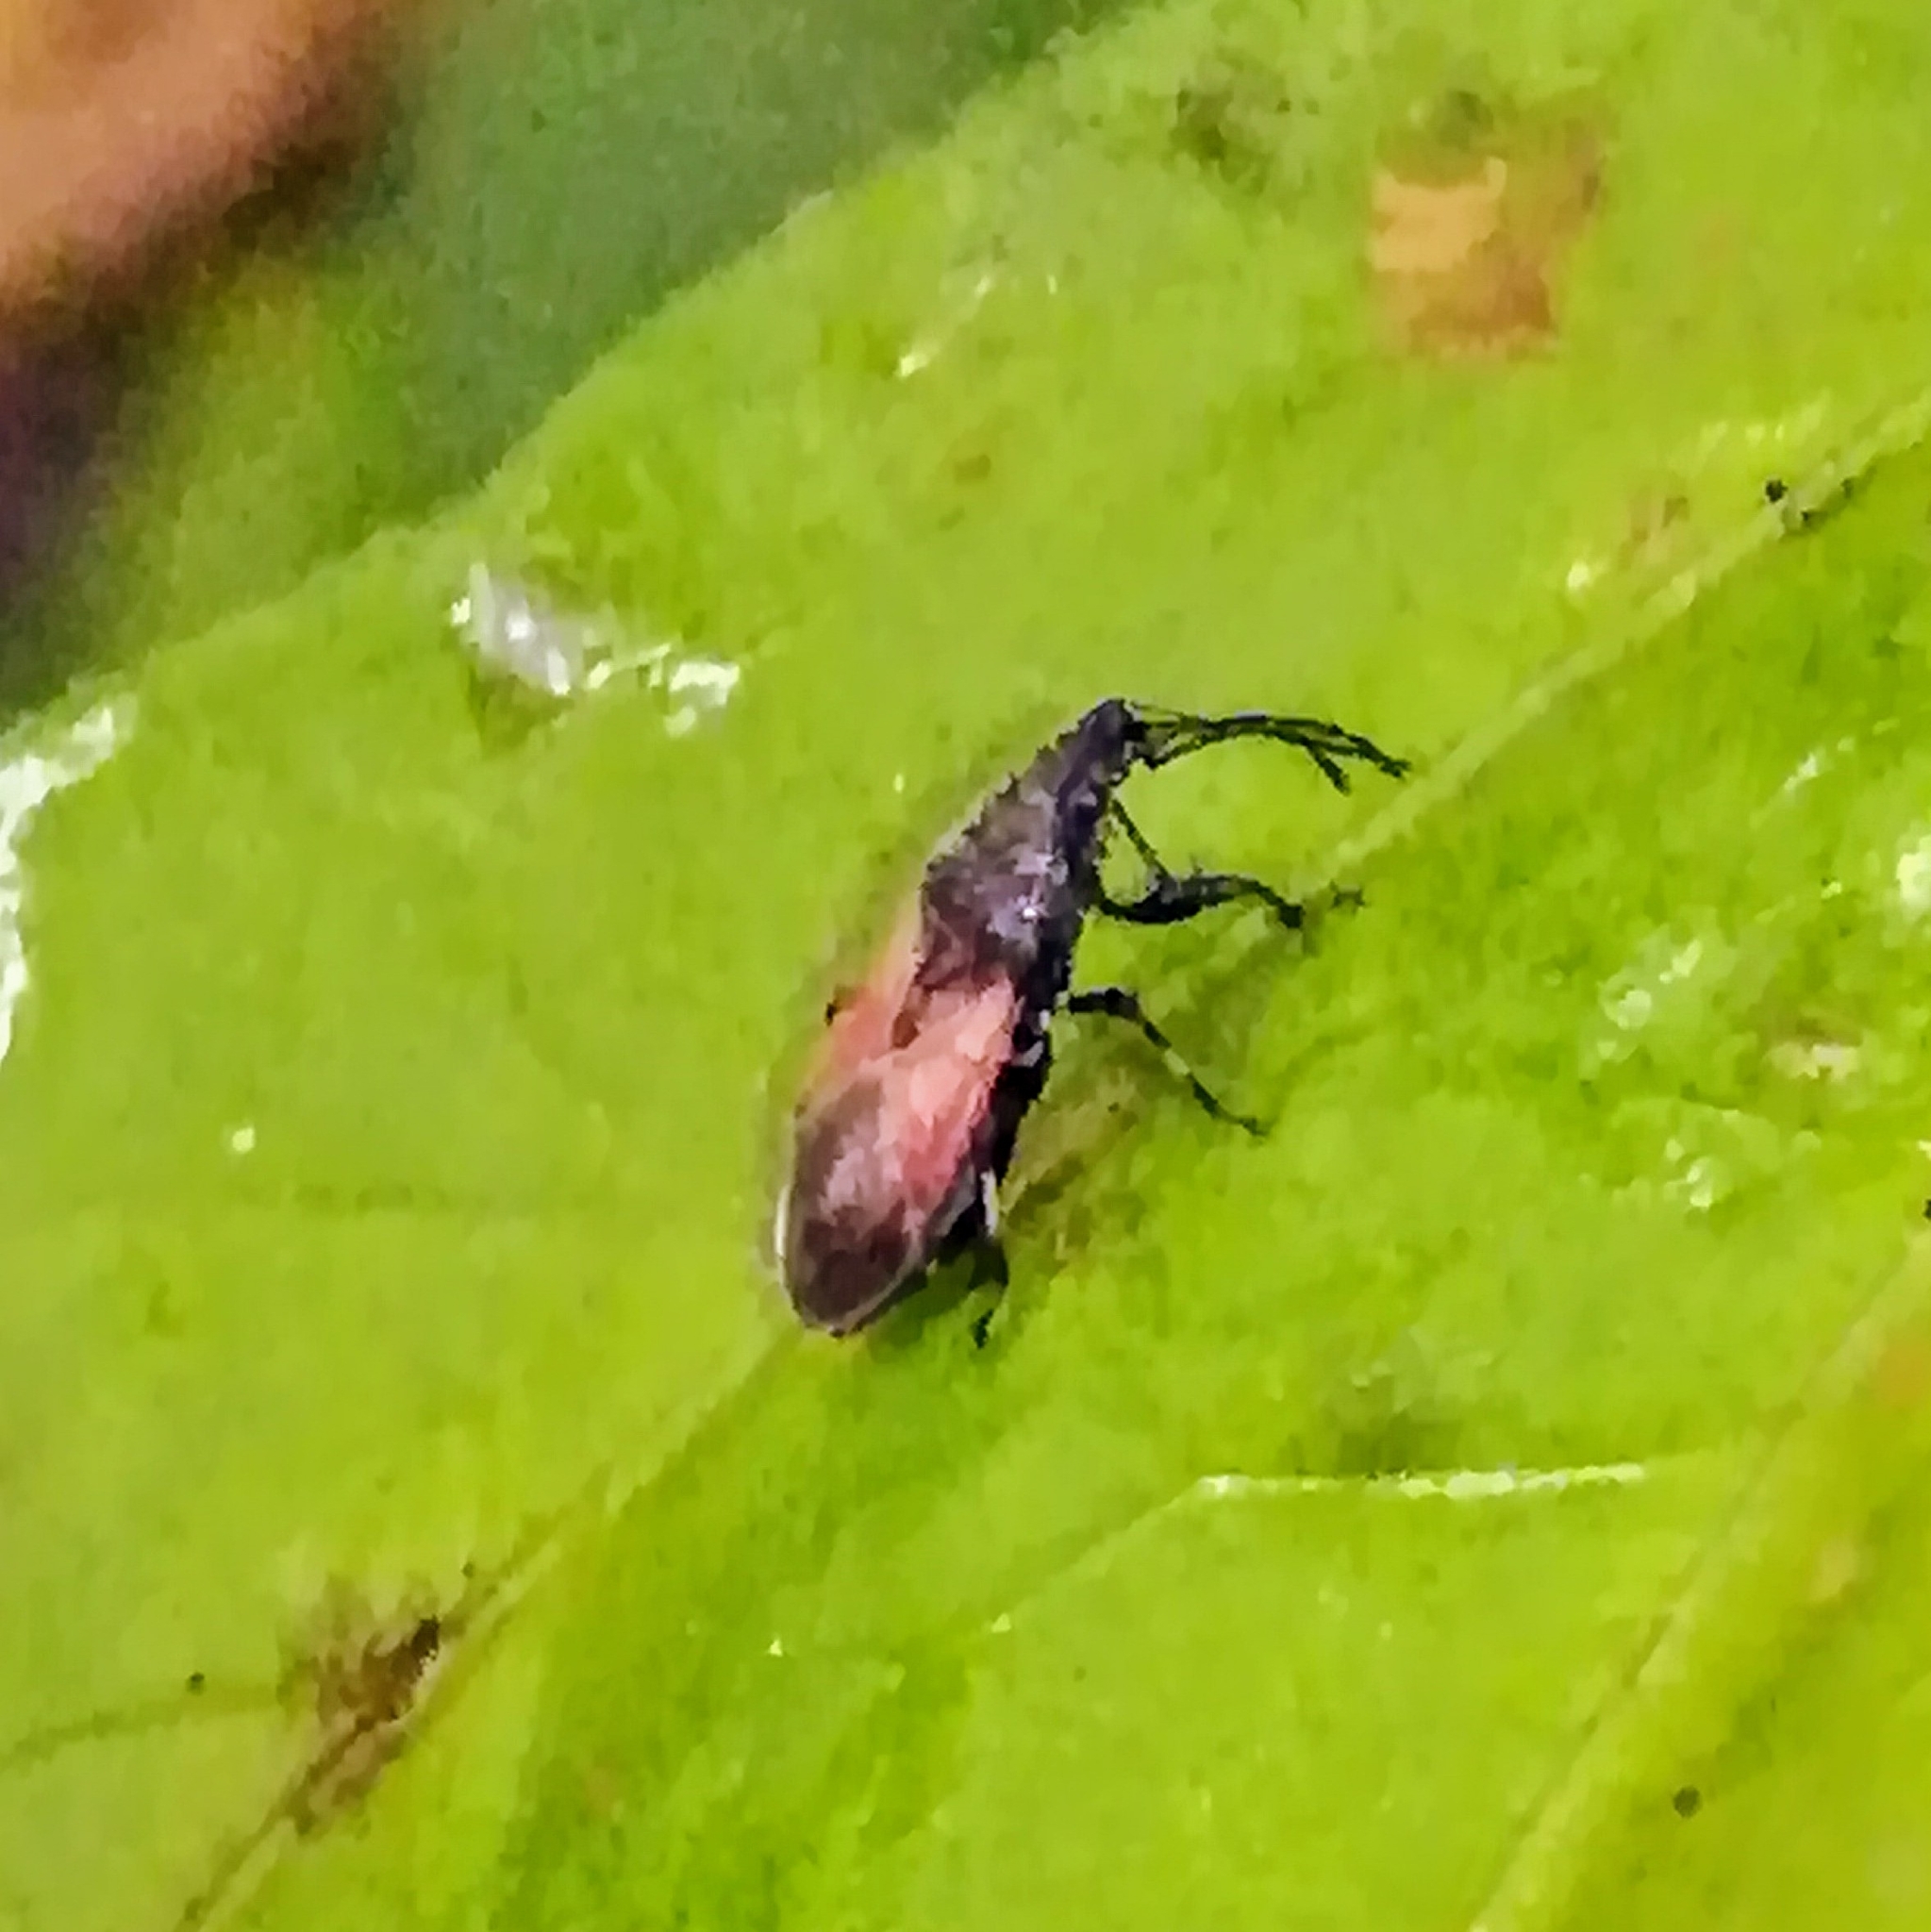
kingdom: Animalia
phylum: Arthropoda
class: Insecta
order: Hemiptera
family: Oxycarenidae
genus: Oxycarenus
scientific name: Oxycarenus lavaterae
